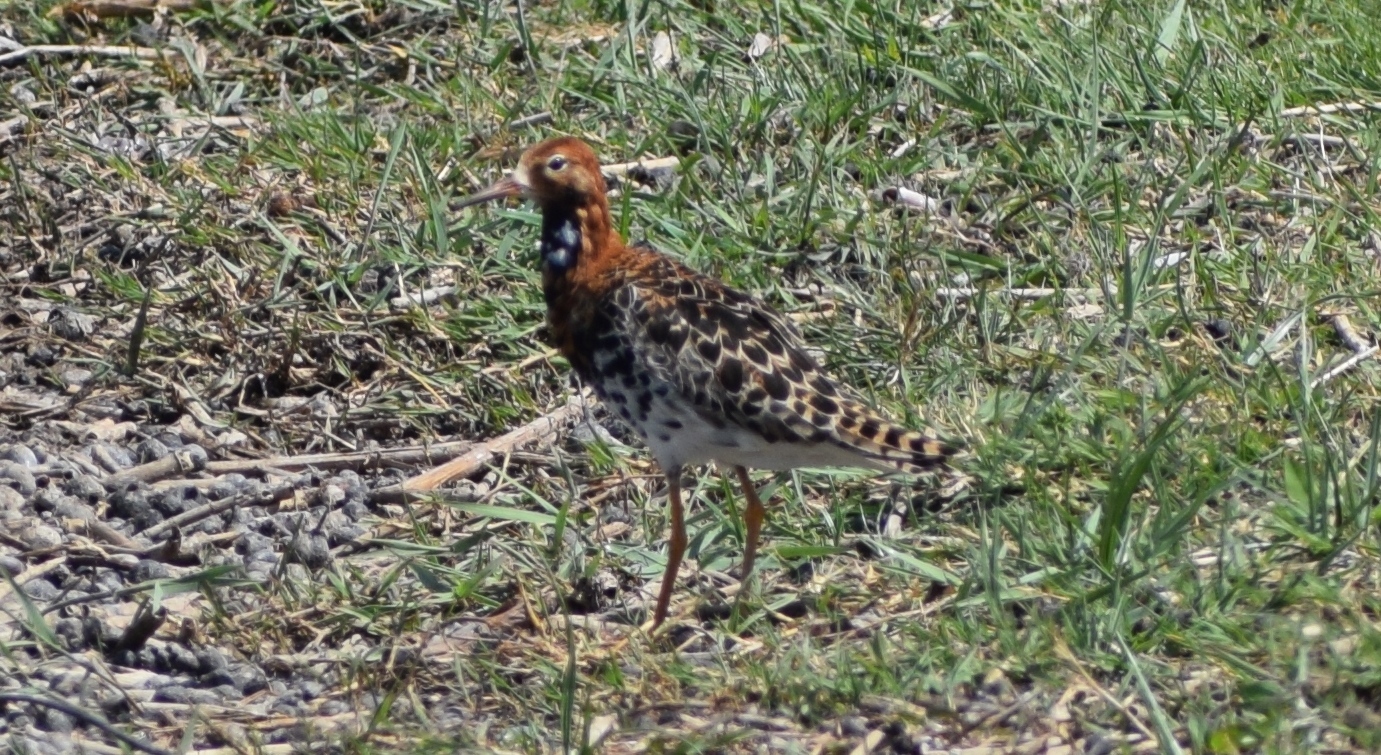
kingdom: Animalia
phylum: Chordata
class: Aves
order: Charadriiformes
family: Scolopacidae
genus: Calidris
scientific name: Calidris pugnax
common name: Ruff
